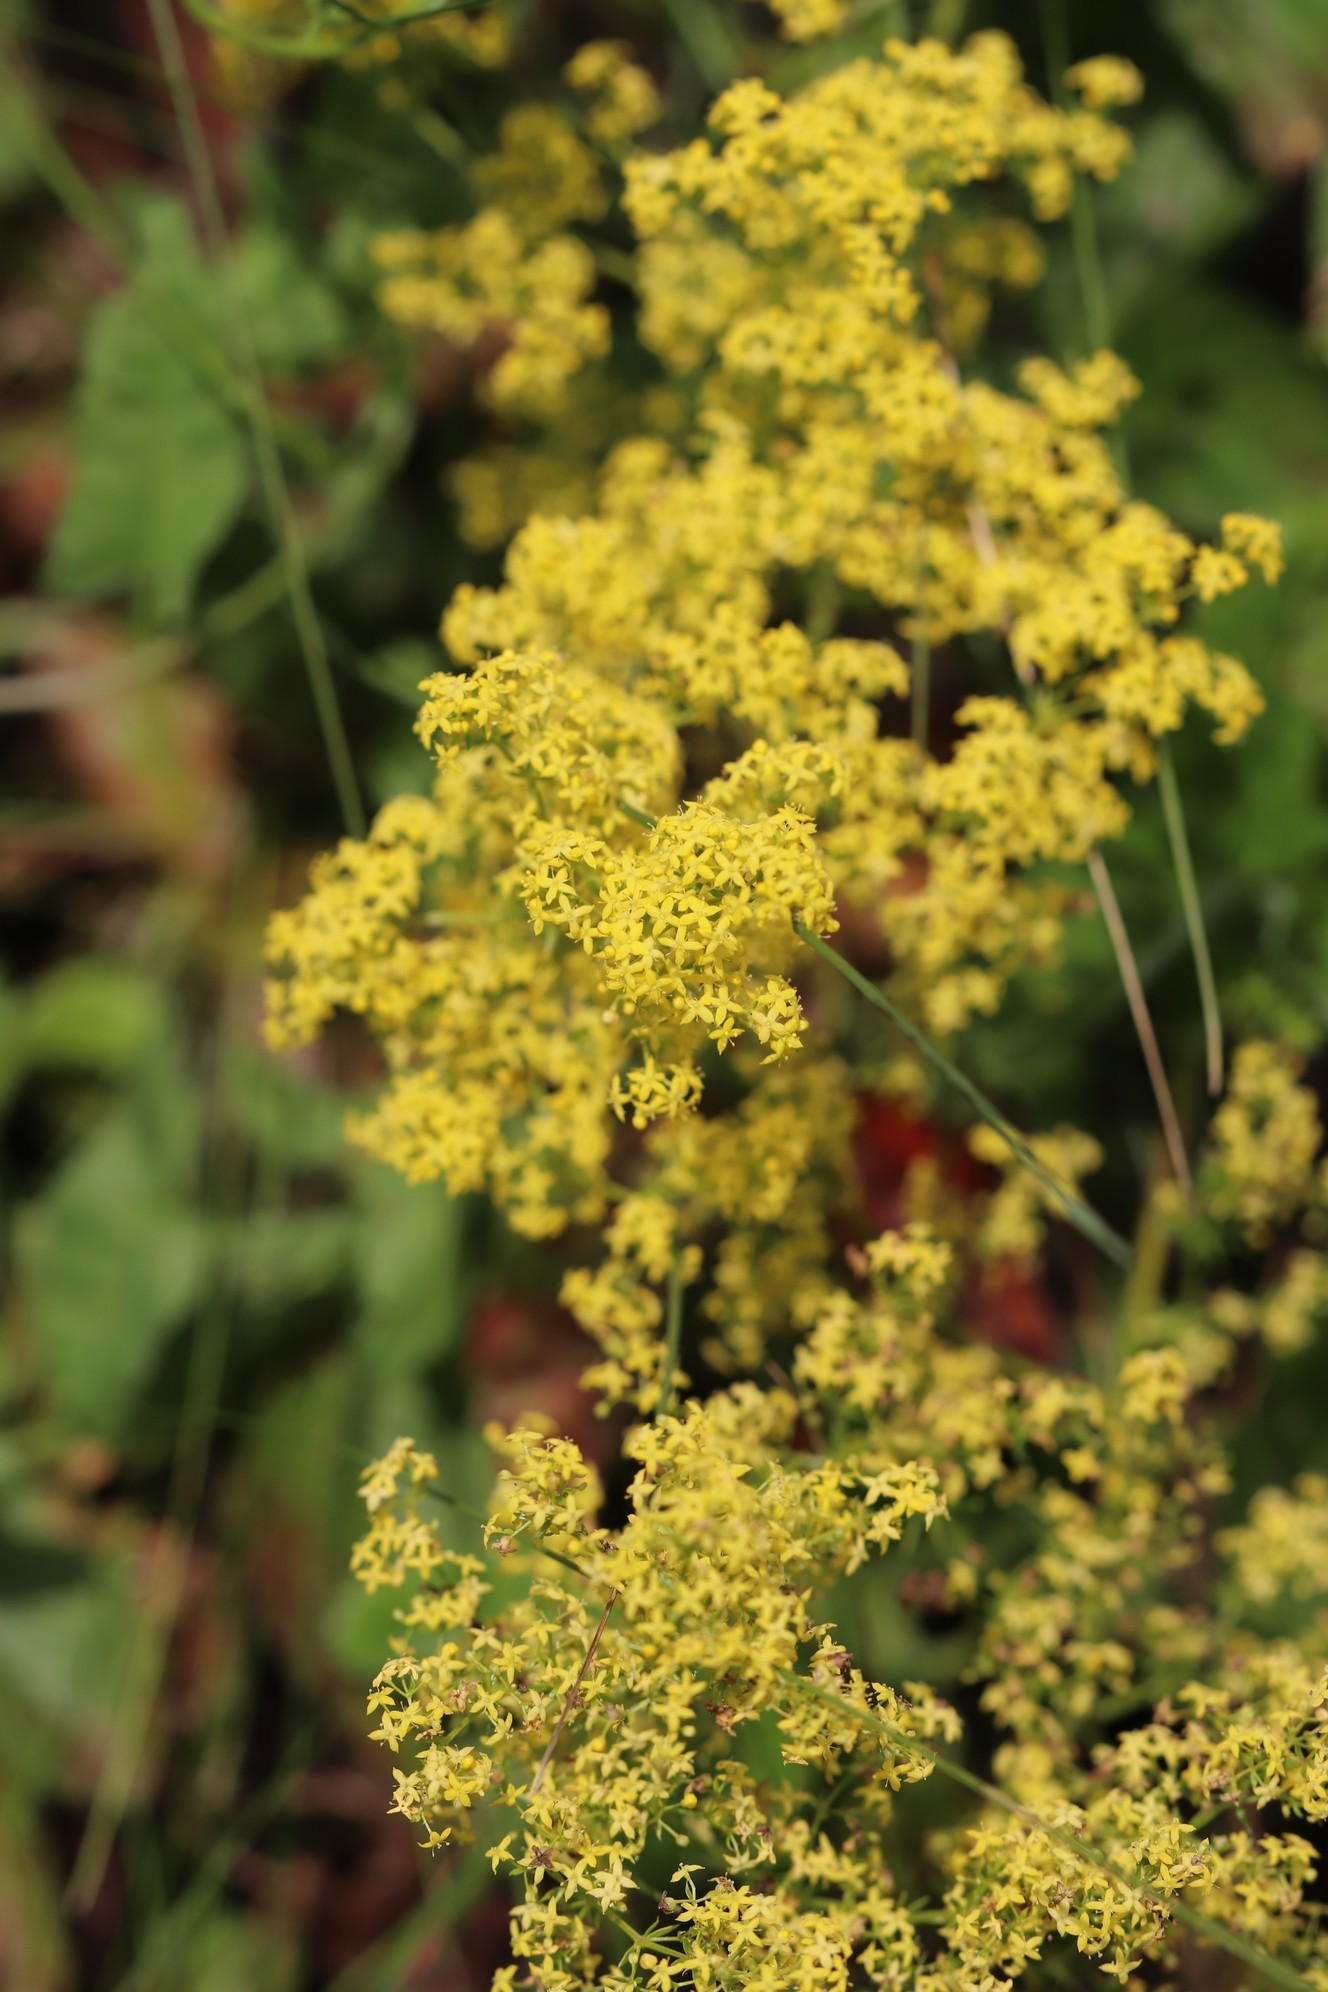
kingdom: Plantae
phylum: Tracheophyta
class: Magnoliopsida
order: Gentianales
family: Rubiaceae
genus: Galium
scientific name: Galium verum
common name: Lady's bedstraw
